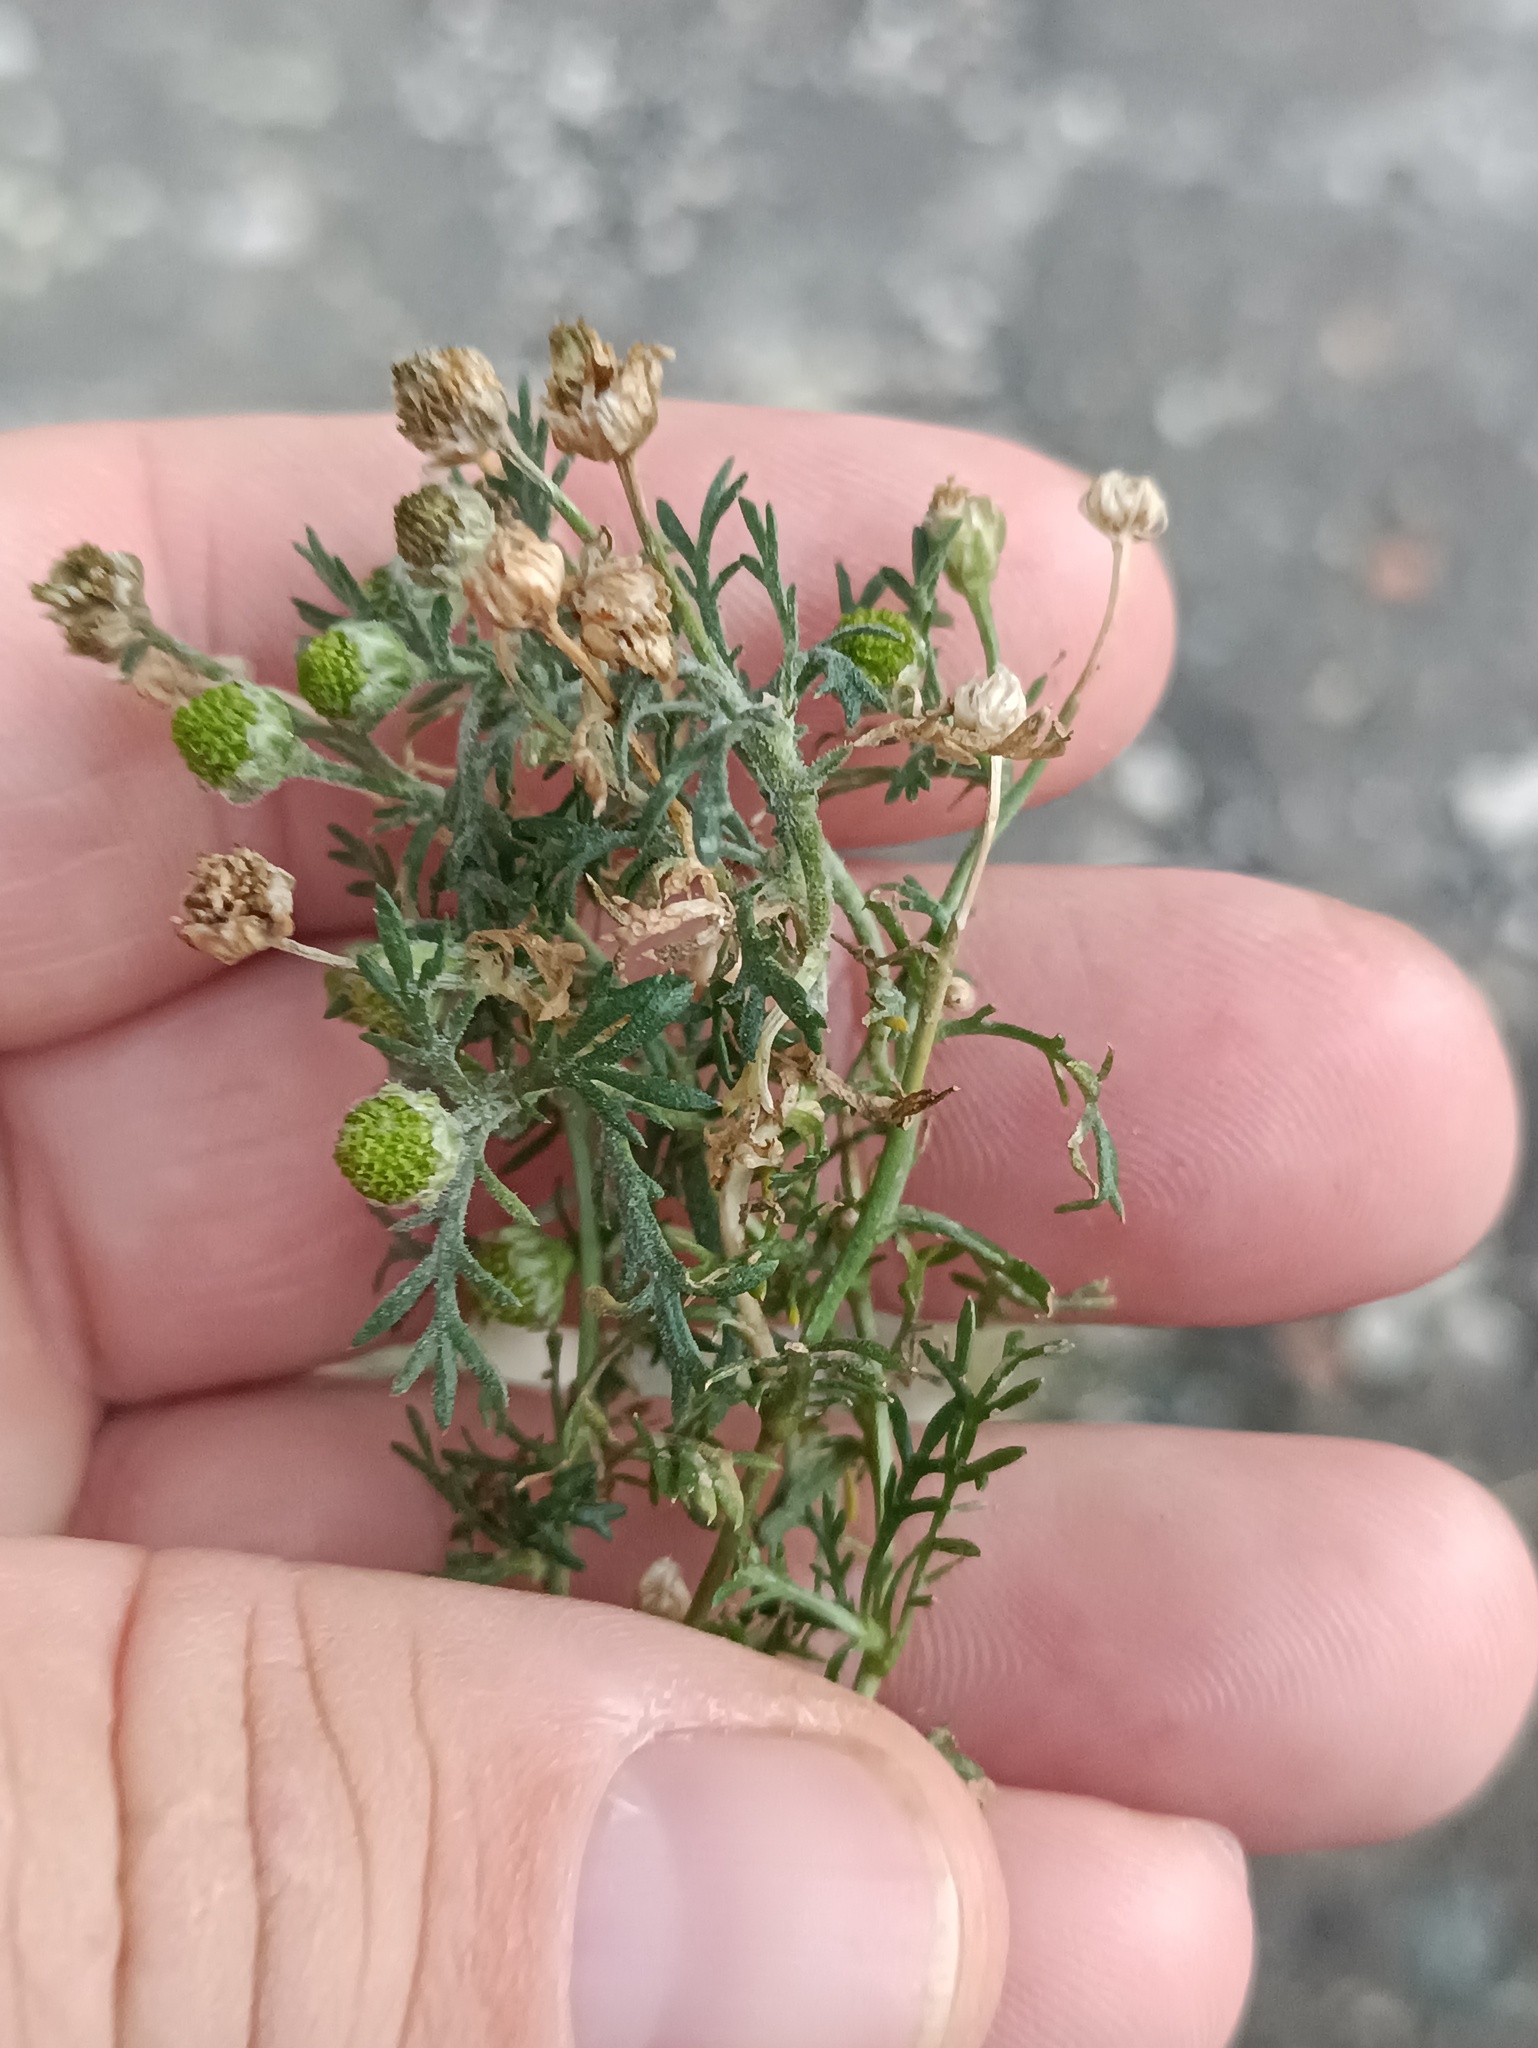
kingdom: Plantae
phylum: Tracheophyta
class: Magnoliopsida
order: Asterales
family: Asteraceae
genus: Matricaria
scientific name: Matricaria discoidea
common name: Disc mayweed
